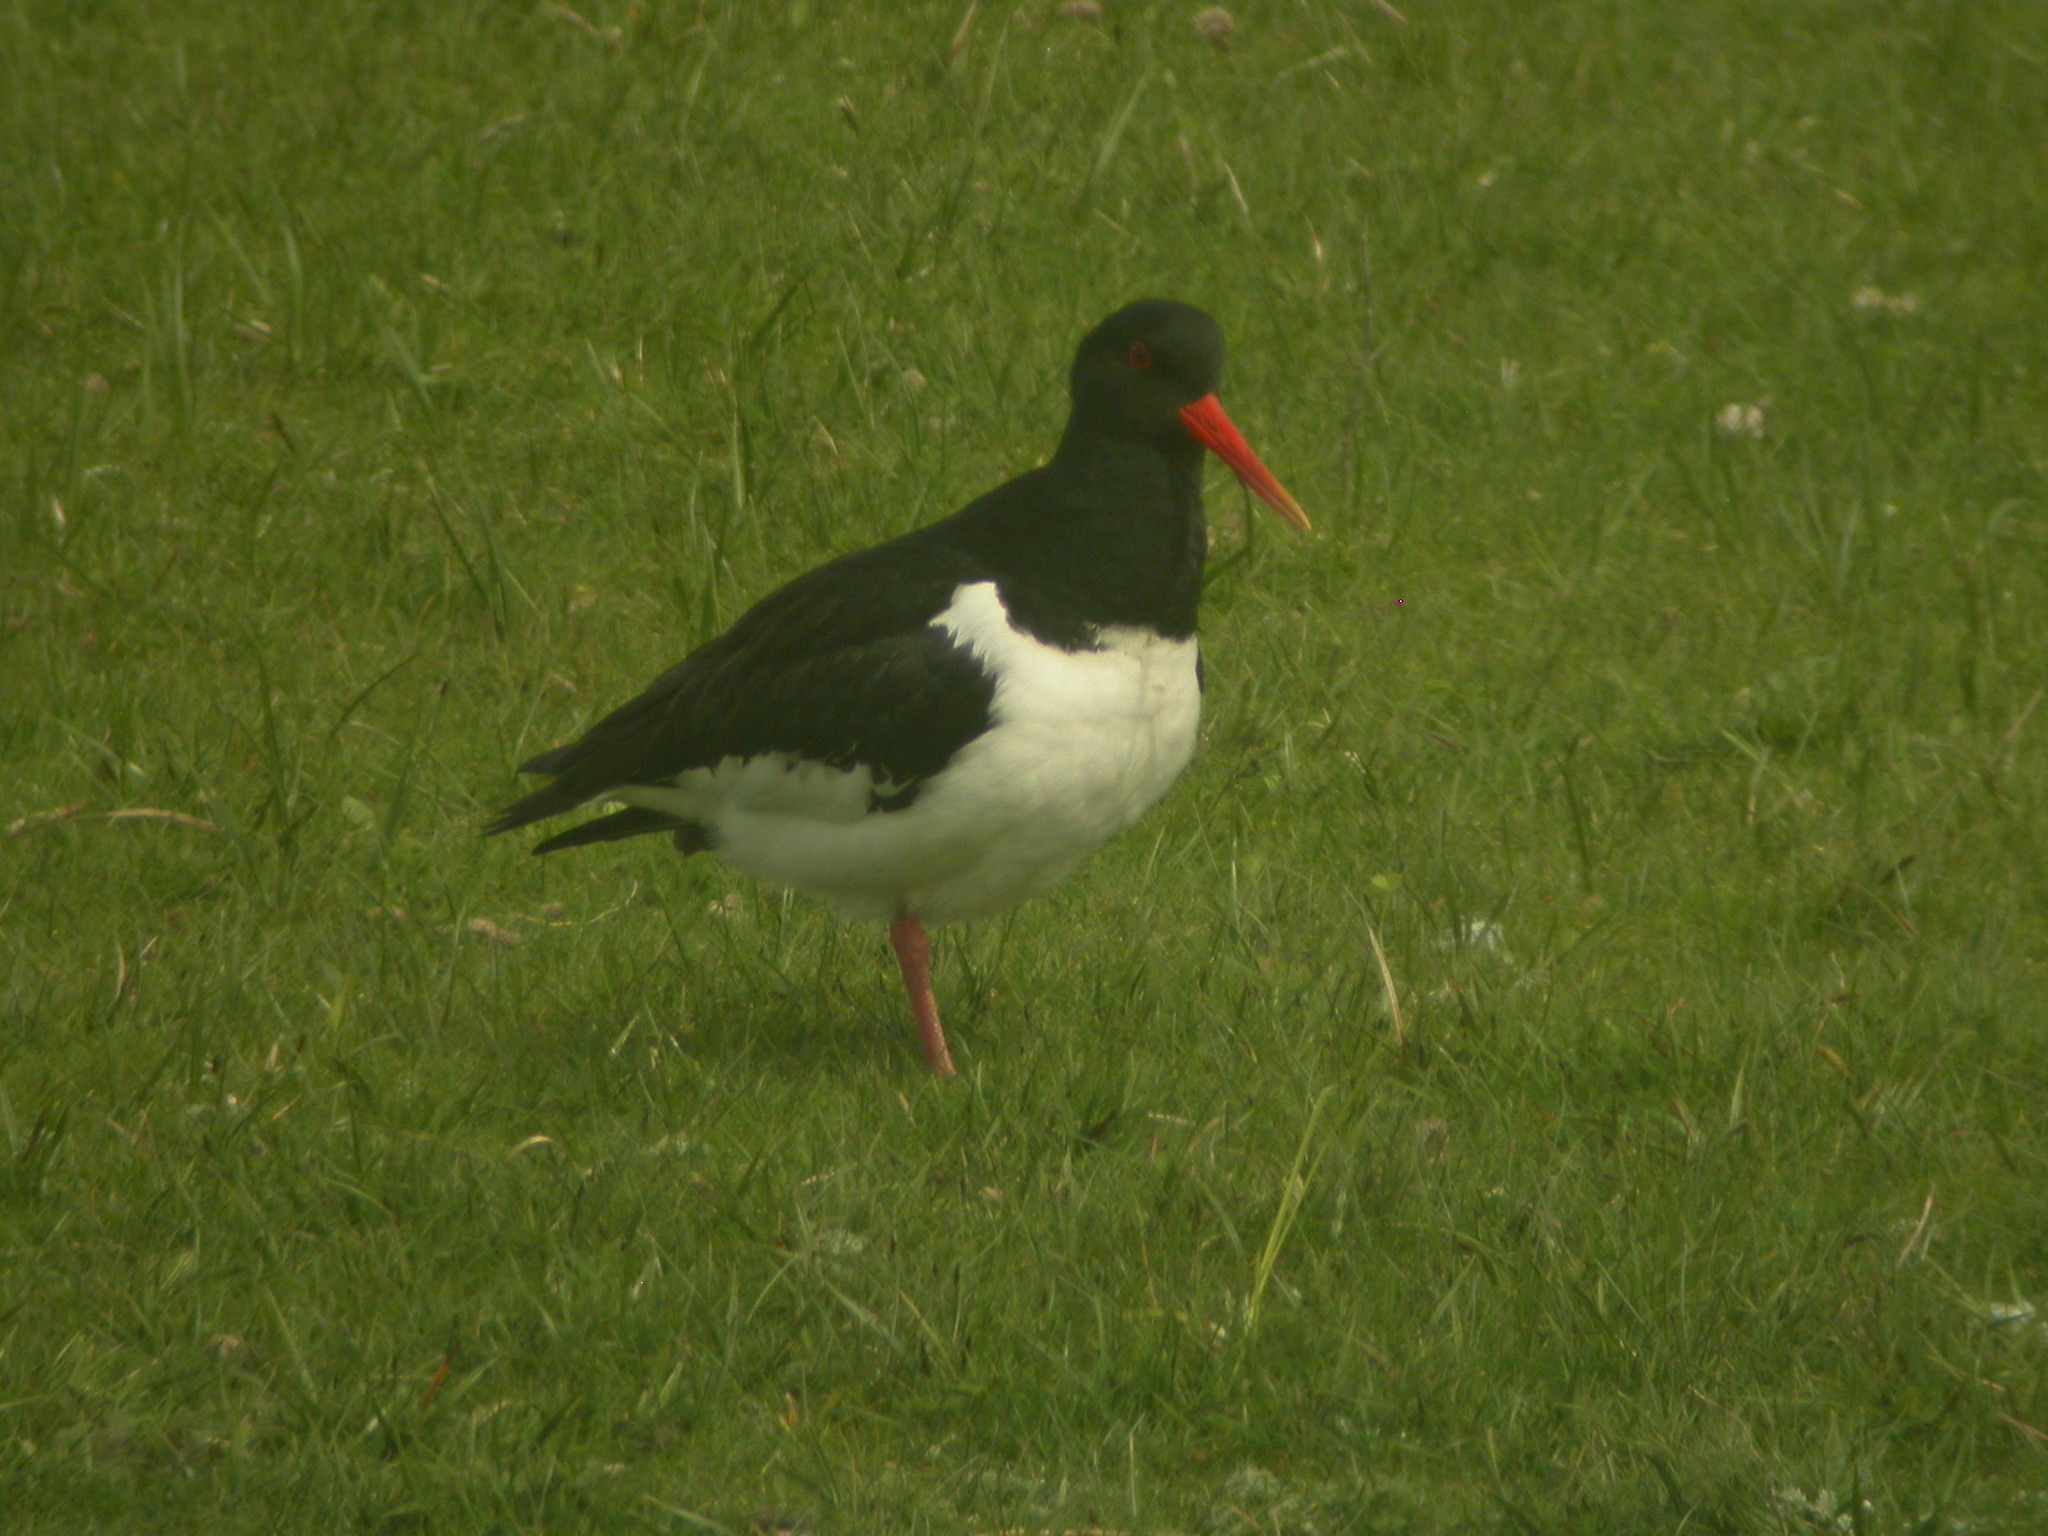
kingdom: Animalia
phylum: Chordata
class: Aves
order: Charadriiformes
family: Haematopodidae
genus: Haematopus
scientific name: Haematopus ostralegus
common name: Eurasian oystercatcher
